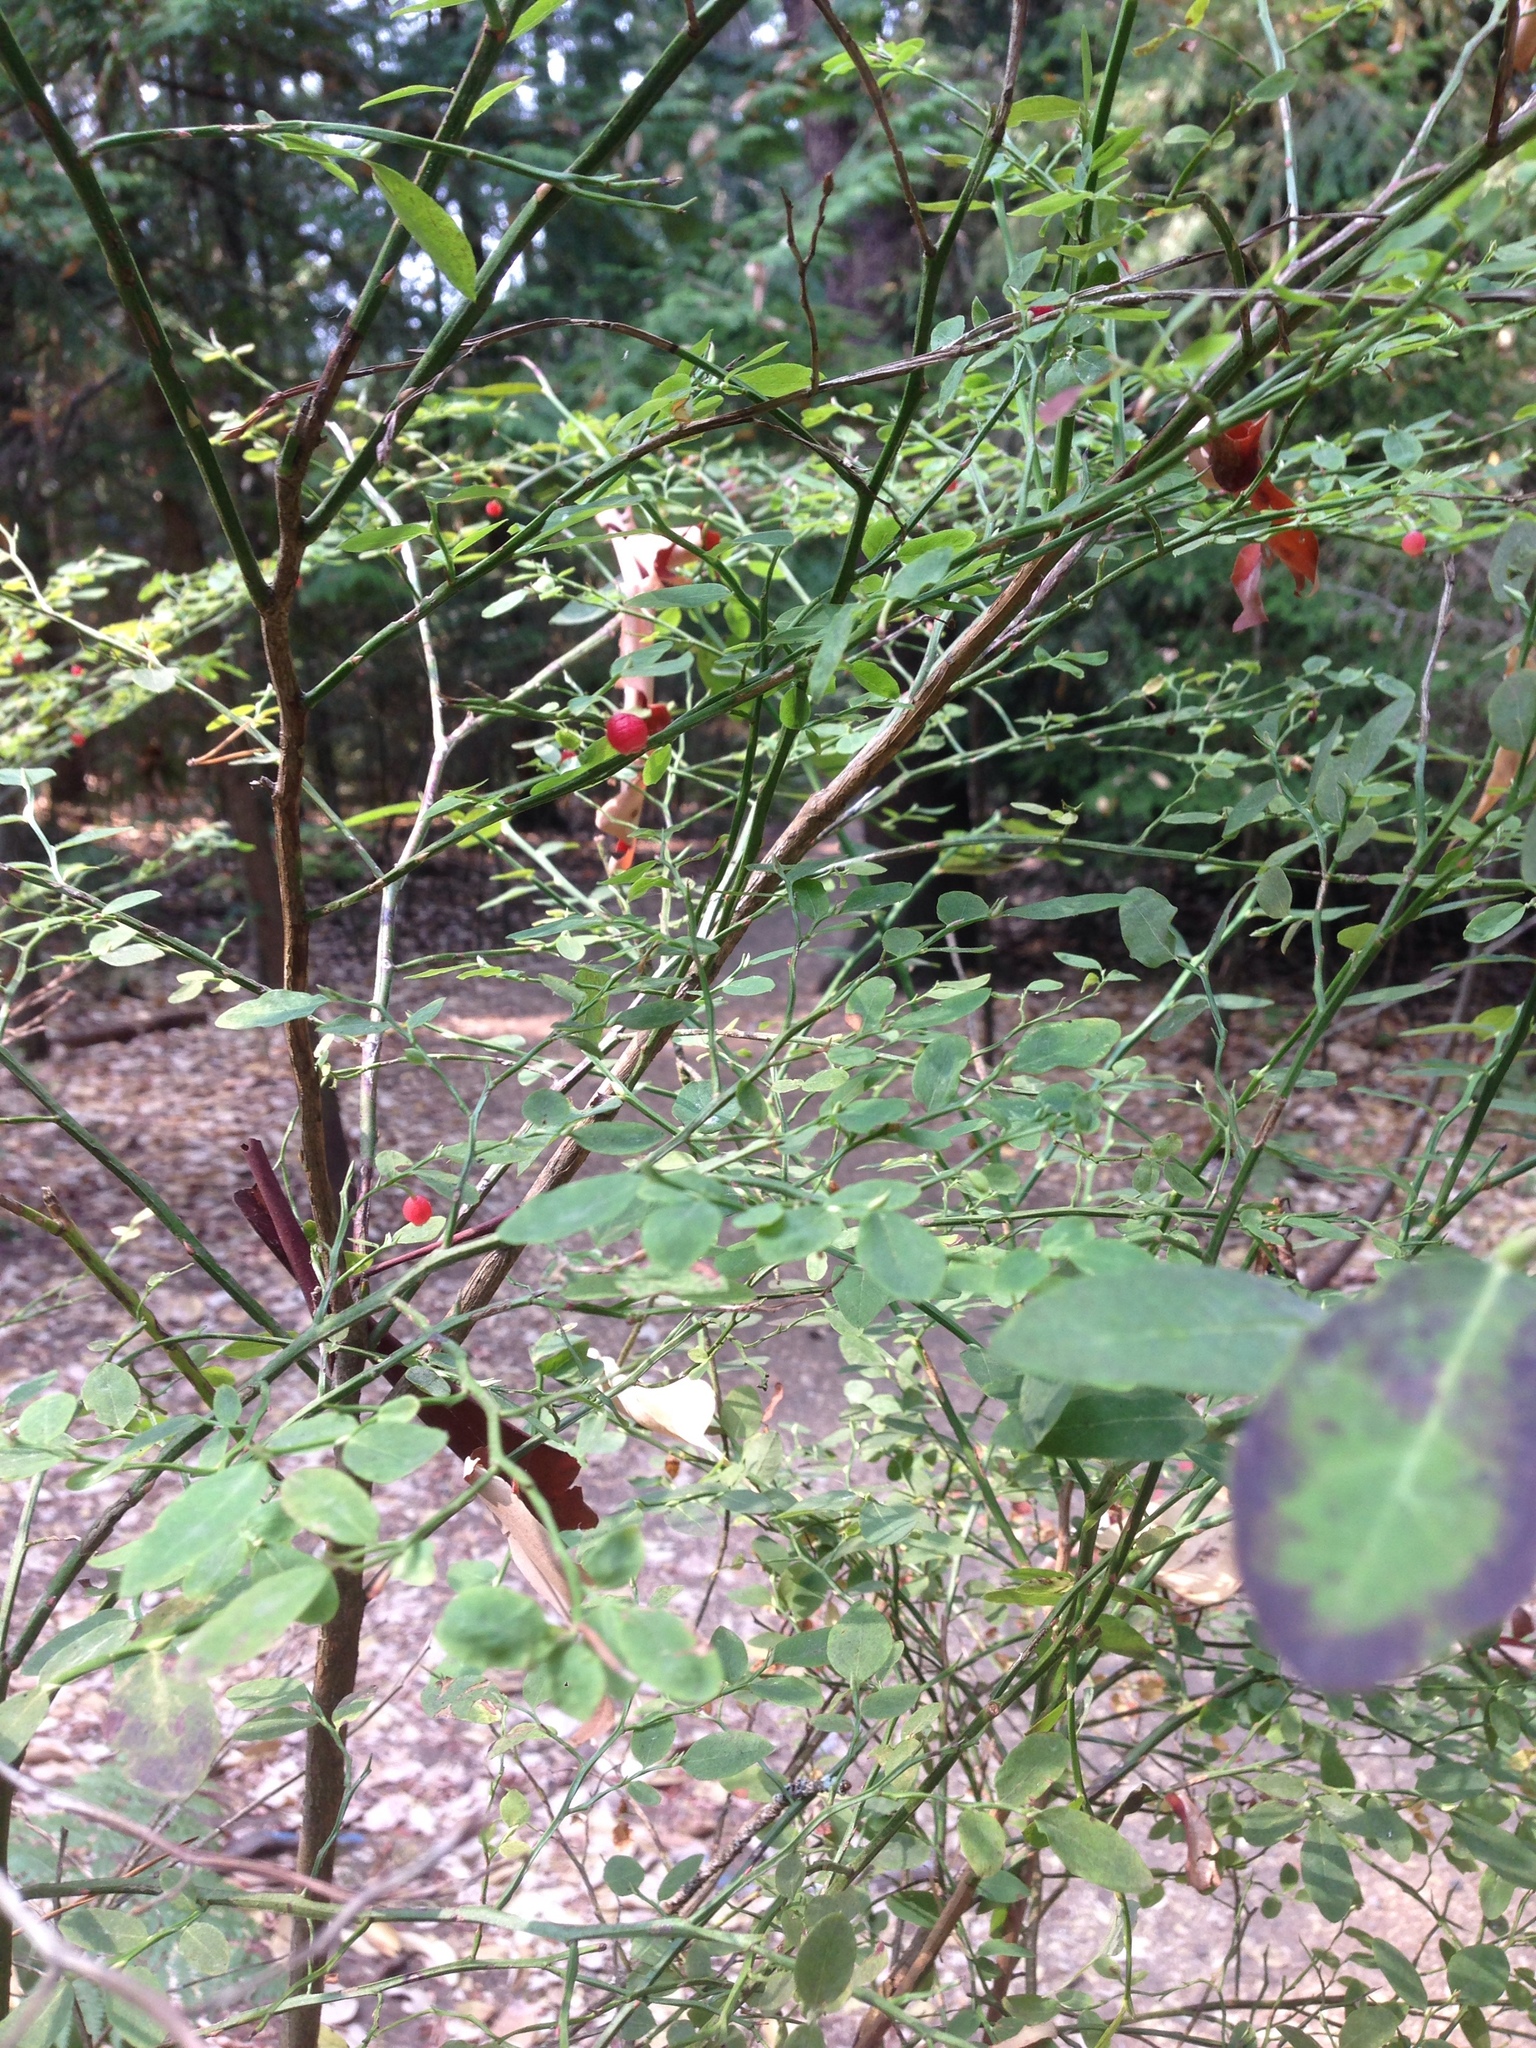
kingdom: Plantae
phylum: Tracheophyta
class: Magnoliopsida
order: Ericales
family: Ericaceae
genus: Vaccinium
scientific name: Vaccinium parvifolium
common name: Red-huckleberry
